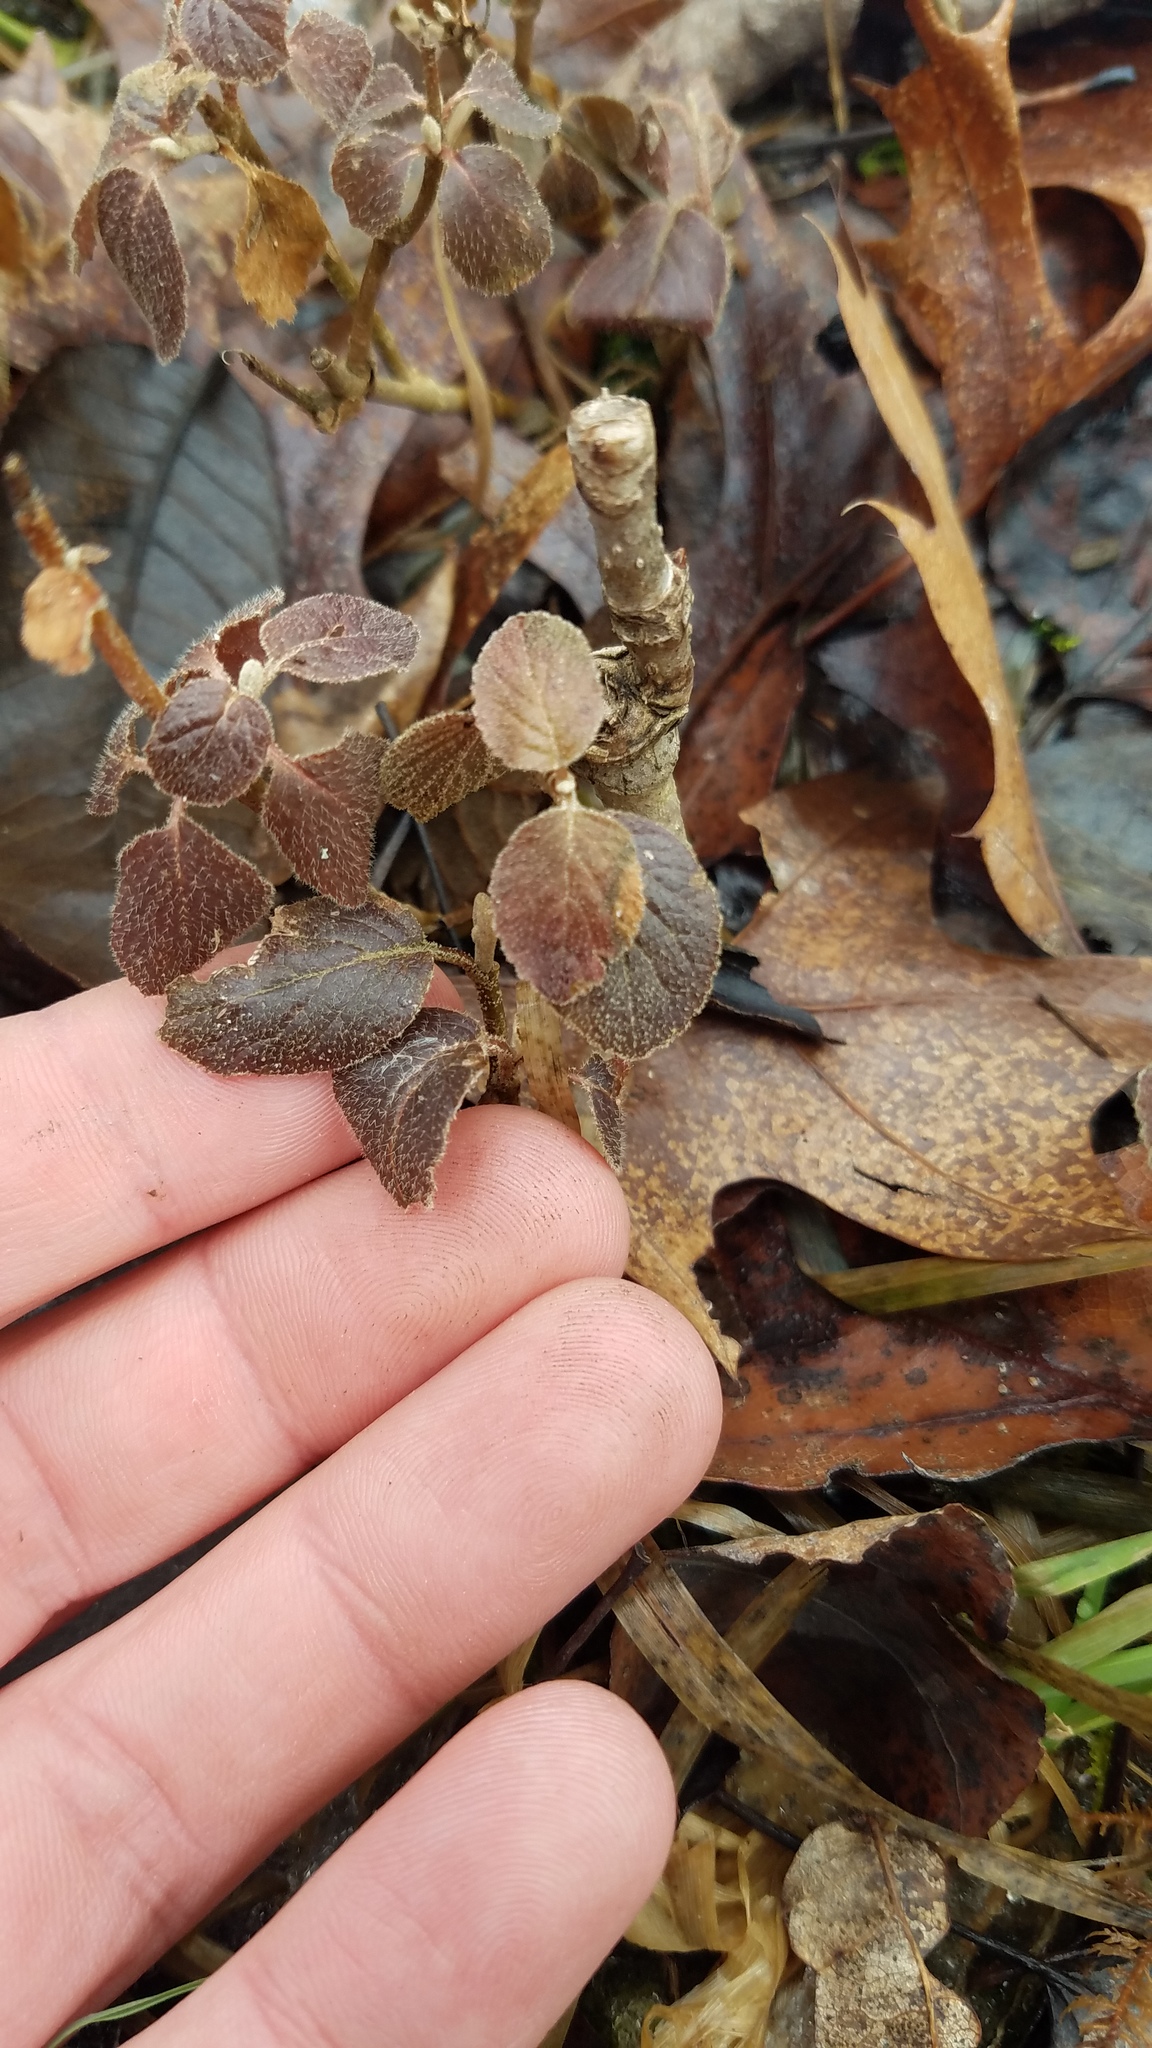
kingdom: Plantae
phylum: Tracheophyta
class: Magnoliopsida
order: Dipsacales
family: Viburnaceae
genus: Viburnum
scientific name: Viburnum lantana
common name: Wayfaring tree
